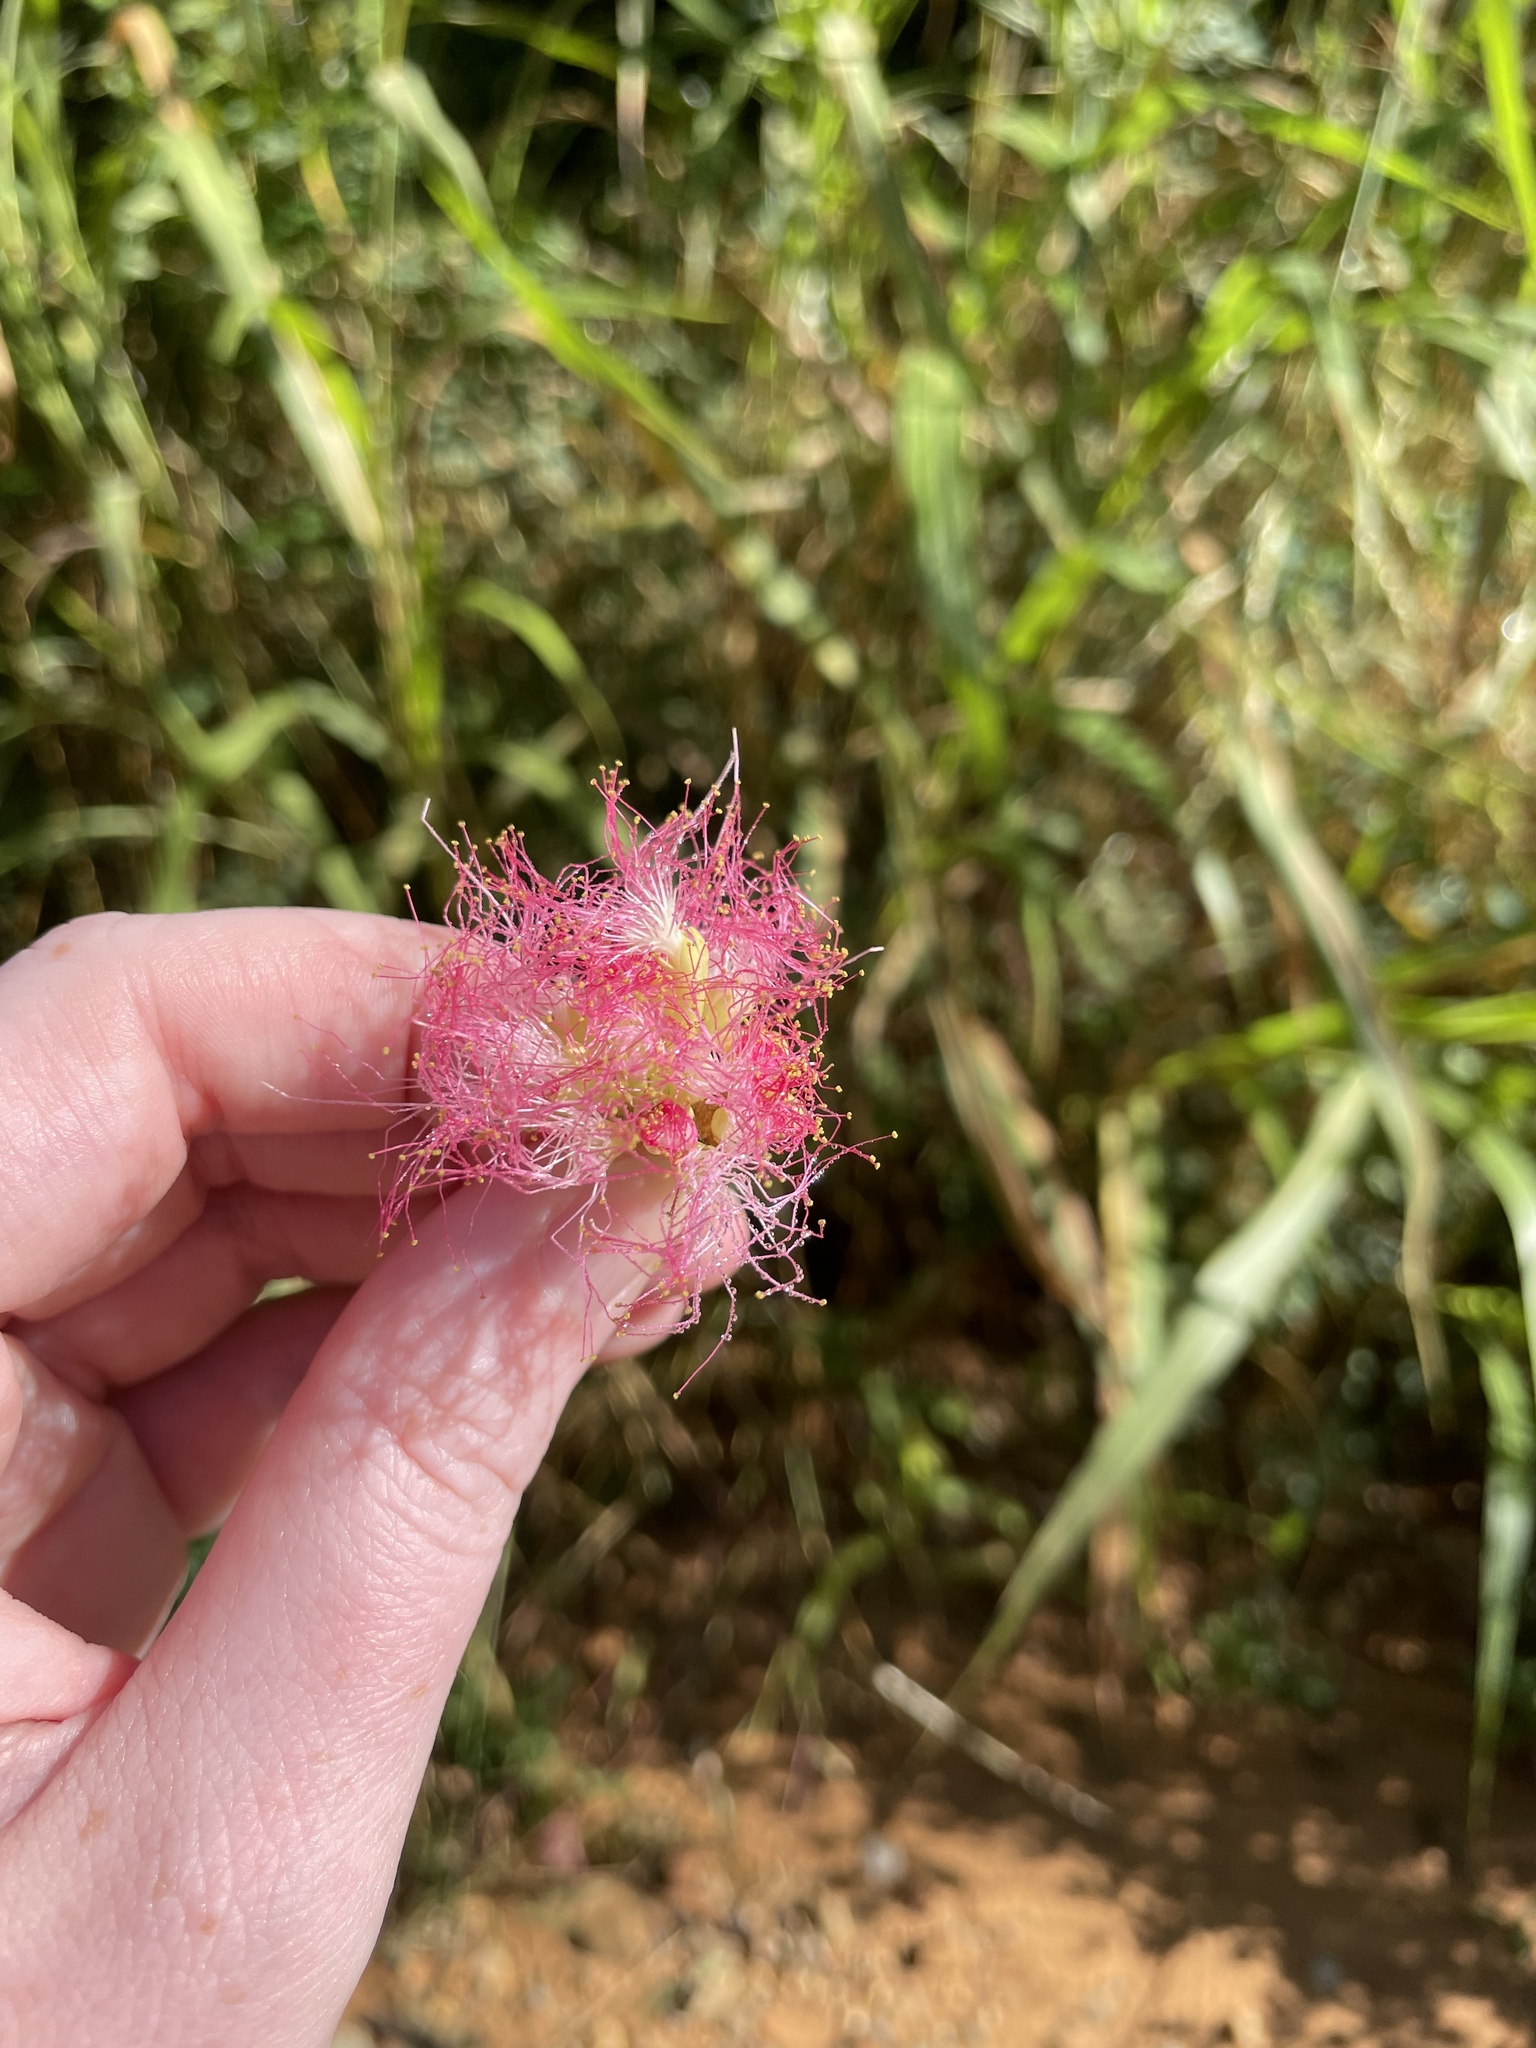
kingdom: Plantae
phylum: Tracheophyta
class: Magnoliopsida
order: Fabales
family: Fabaceae
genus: Albizia
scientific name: Albizia julibrissin
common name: Silktree
